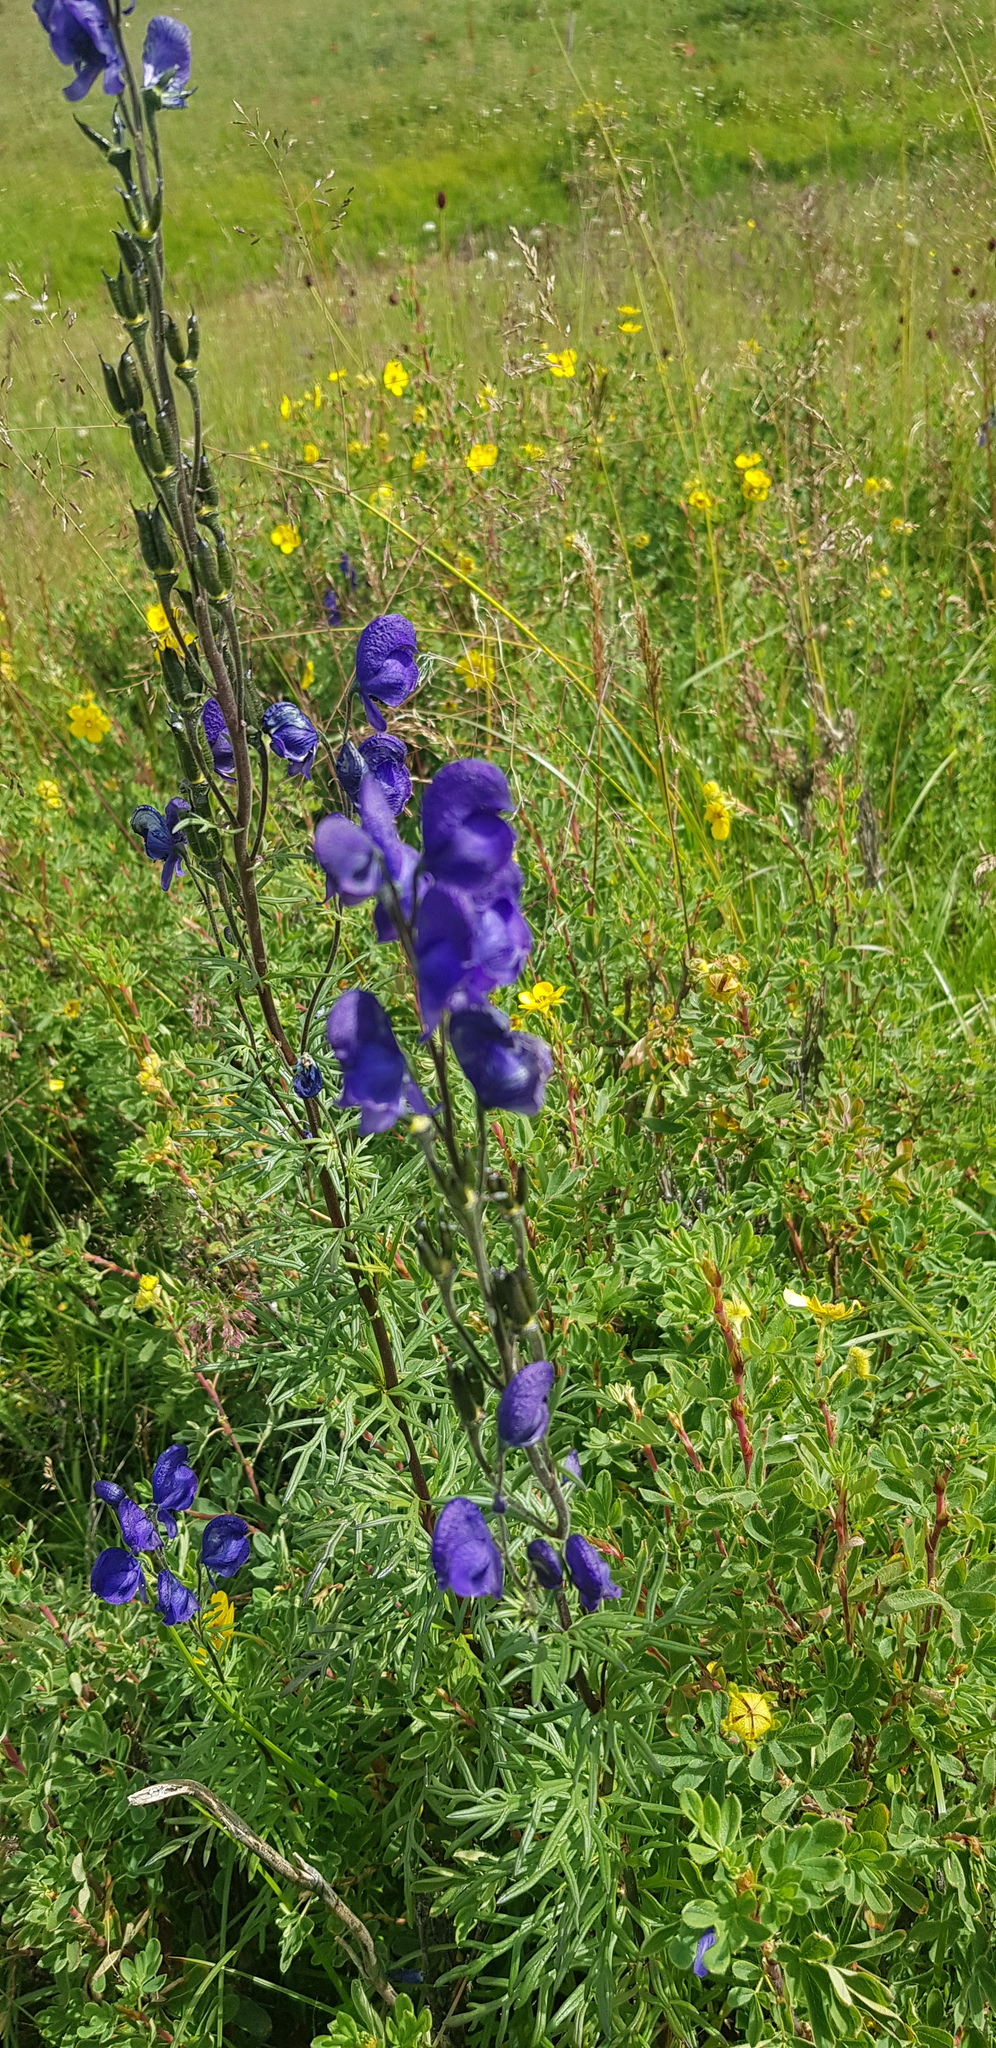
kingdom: Plantae
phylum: Tracheophyta
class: Magnoliopsida
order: Ranunculales
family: Ranunculaceae
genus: Aconitum
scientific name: Aconitum turczaninowii
